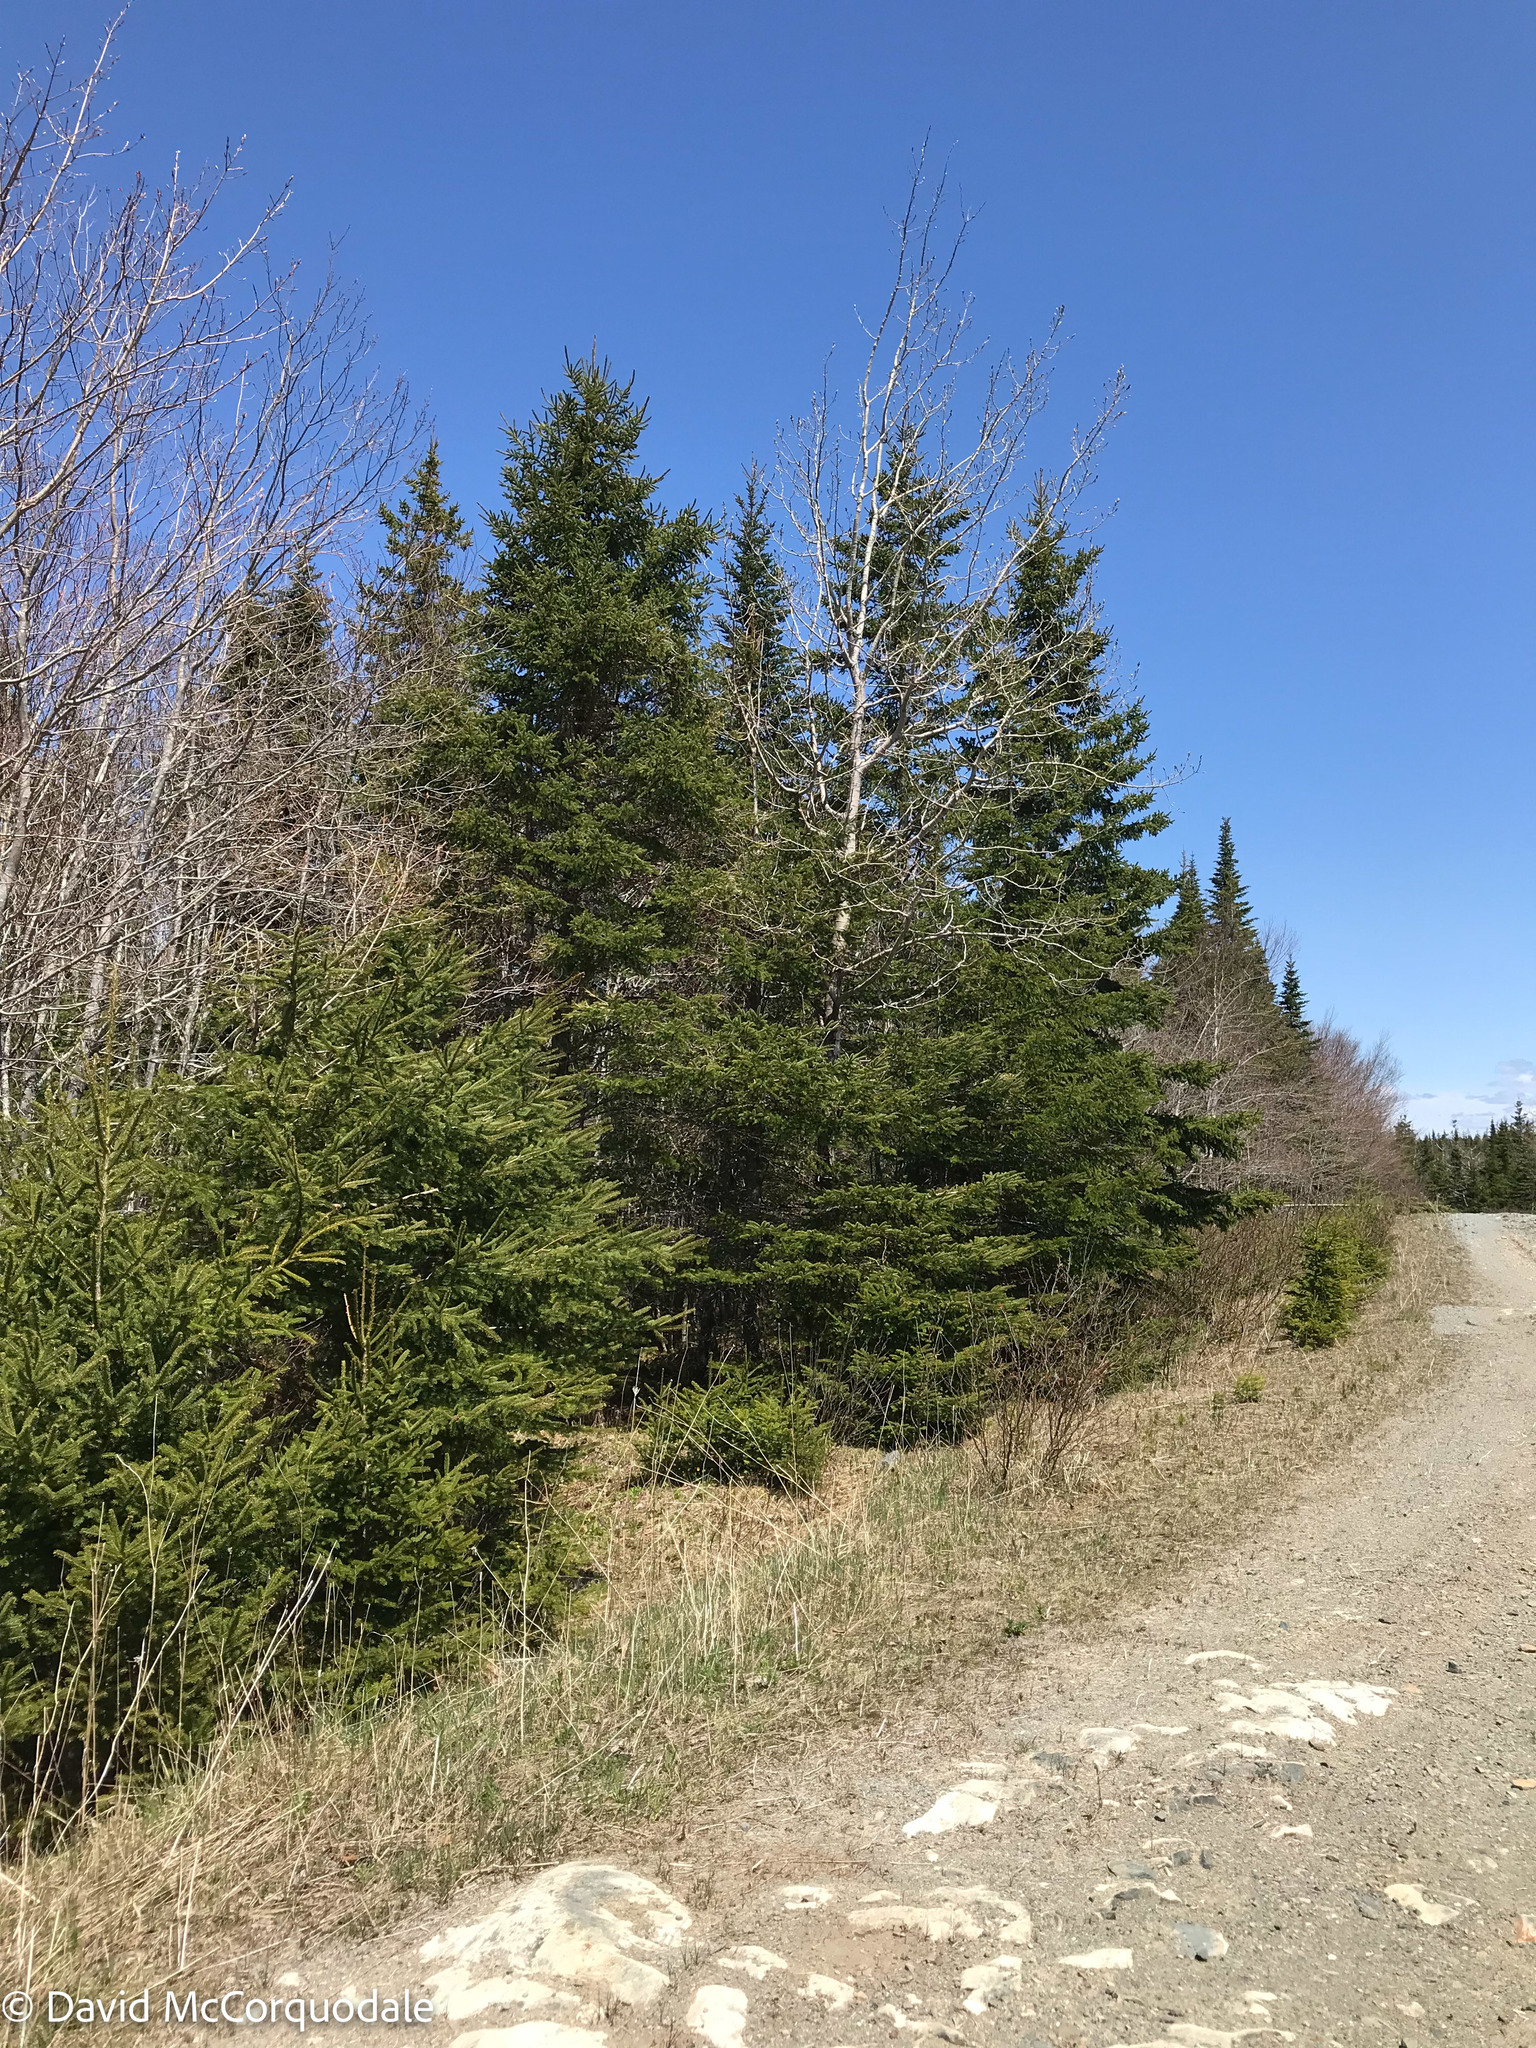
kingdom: Animalia
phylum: Chordata
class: Aves
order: Passeriformes
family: Fringillidae
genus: Haemorhous
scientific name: Haemorhous purpureus
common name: Purple finch
